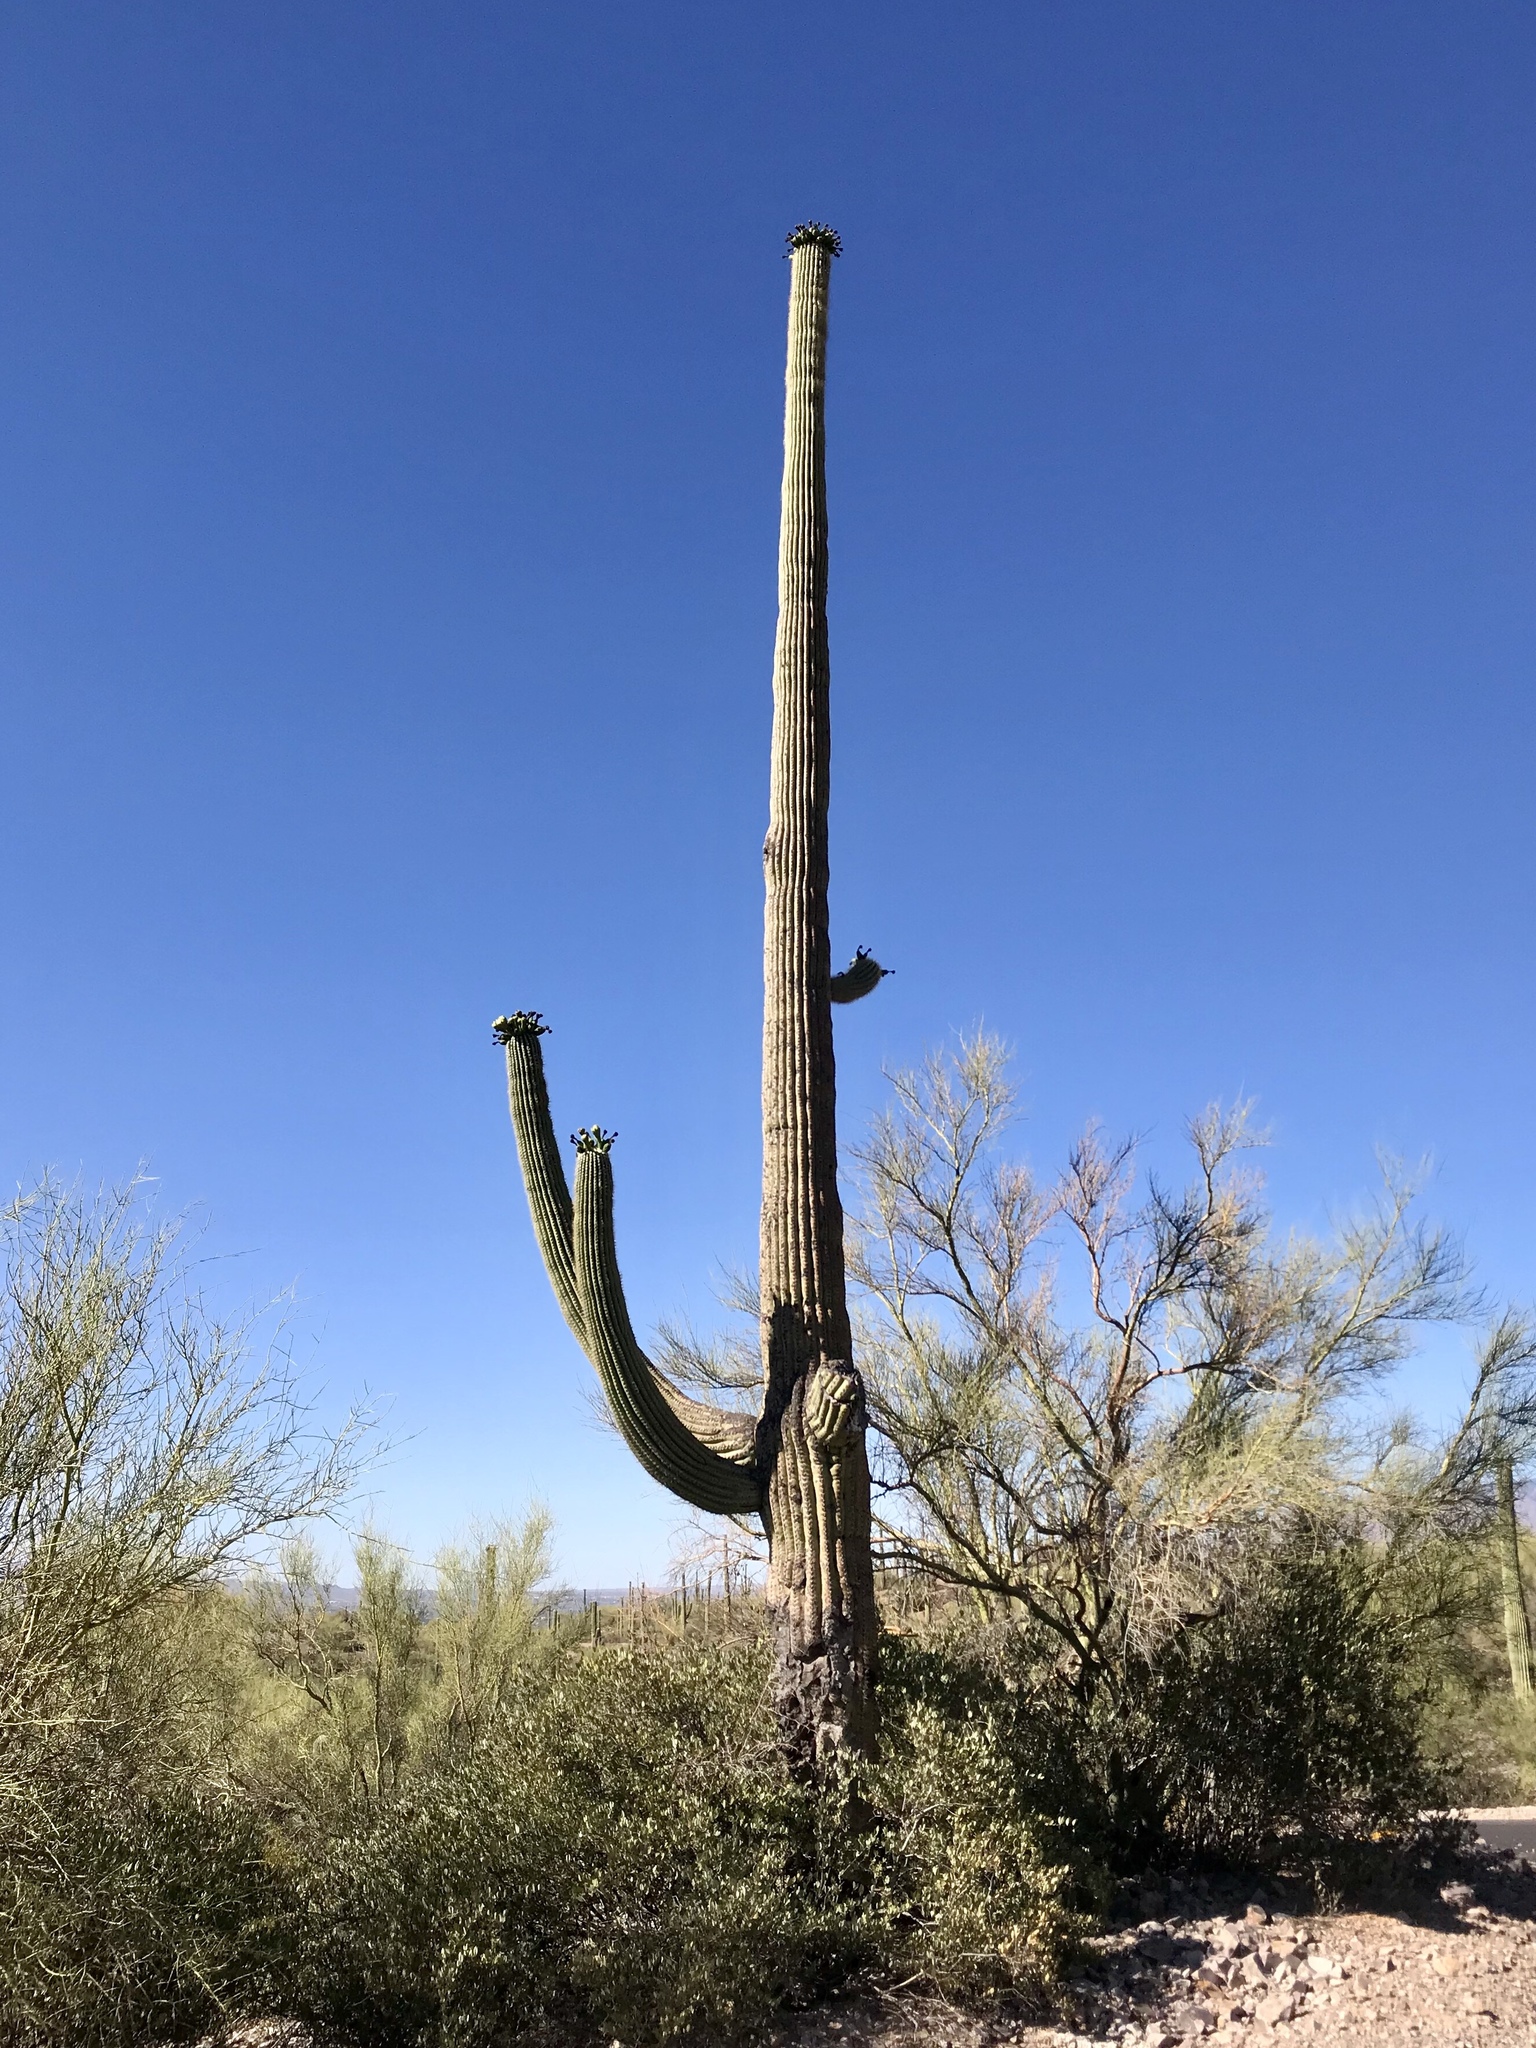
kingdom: Plantae
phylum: Tracheophyta
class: Magnoliopsida
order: Caryophyllales
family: Cactaceae
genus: Carnegiea
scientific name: Carnegiea gigantea
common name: Saguaro
